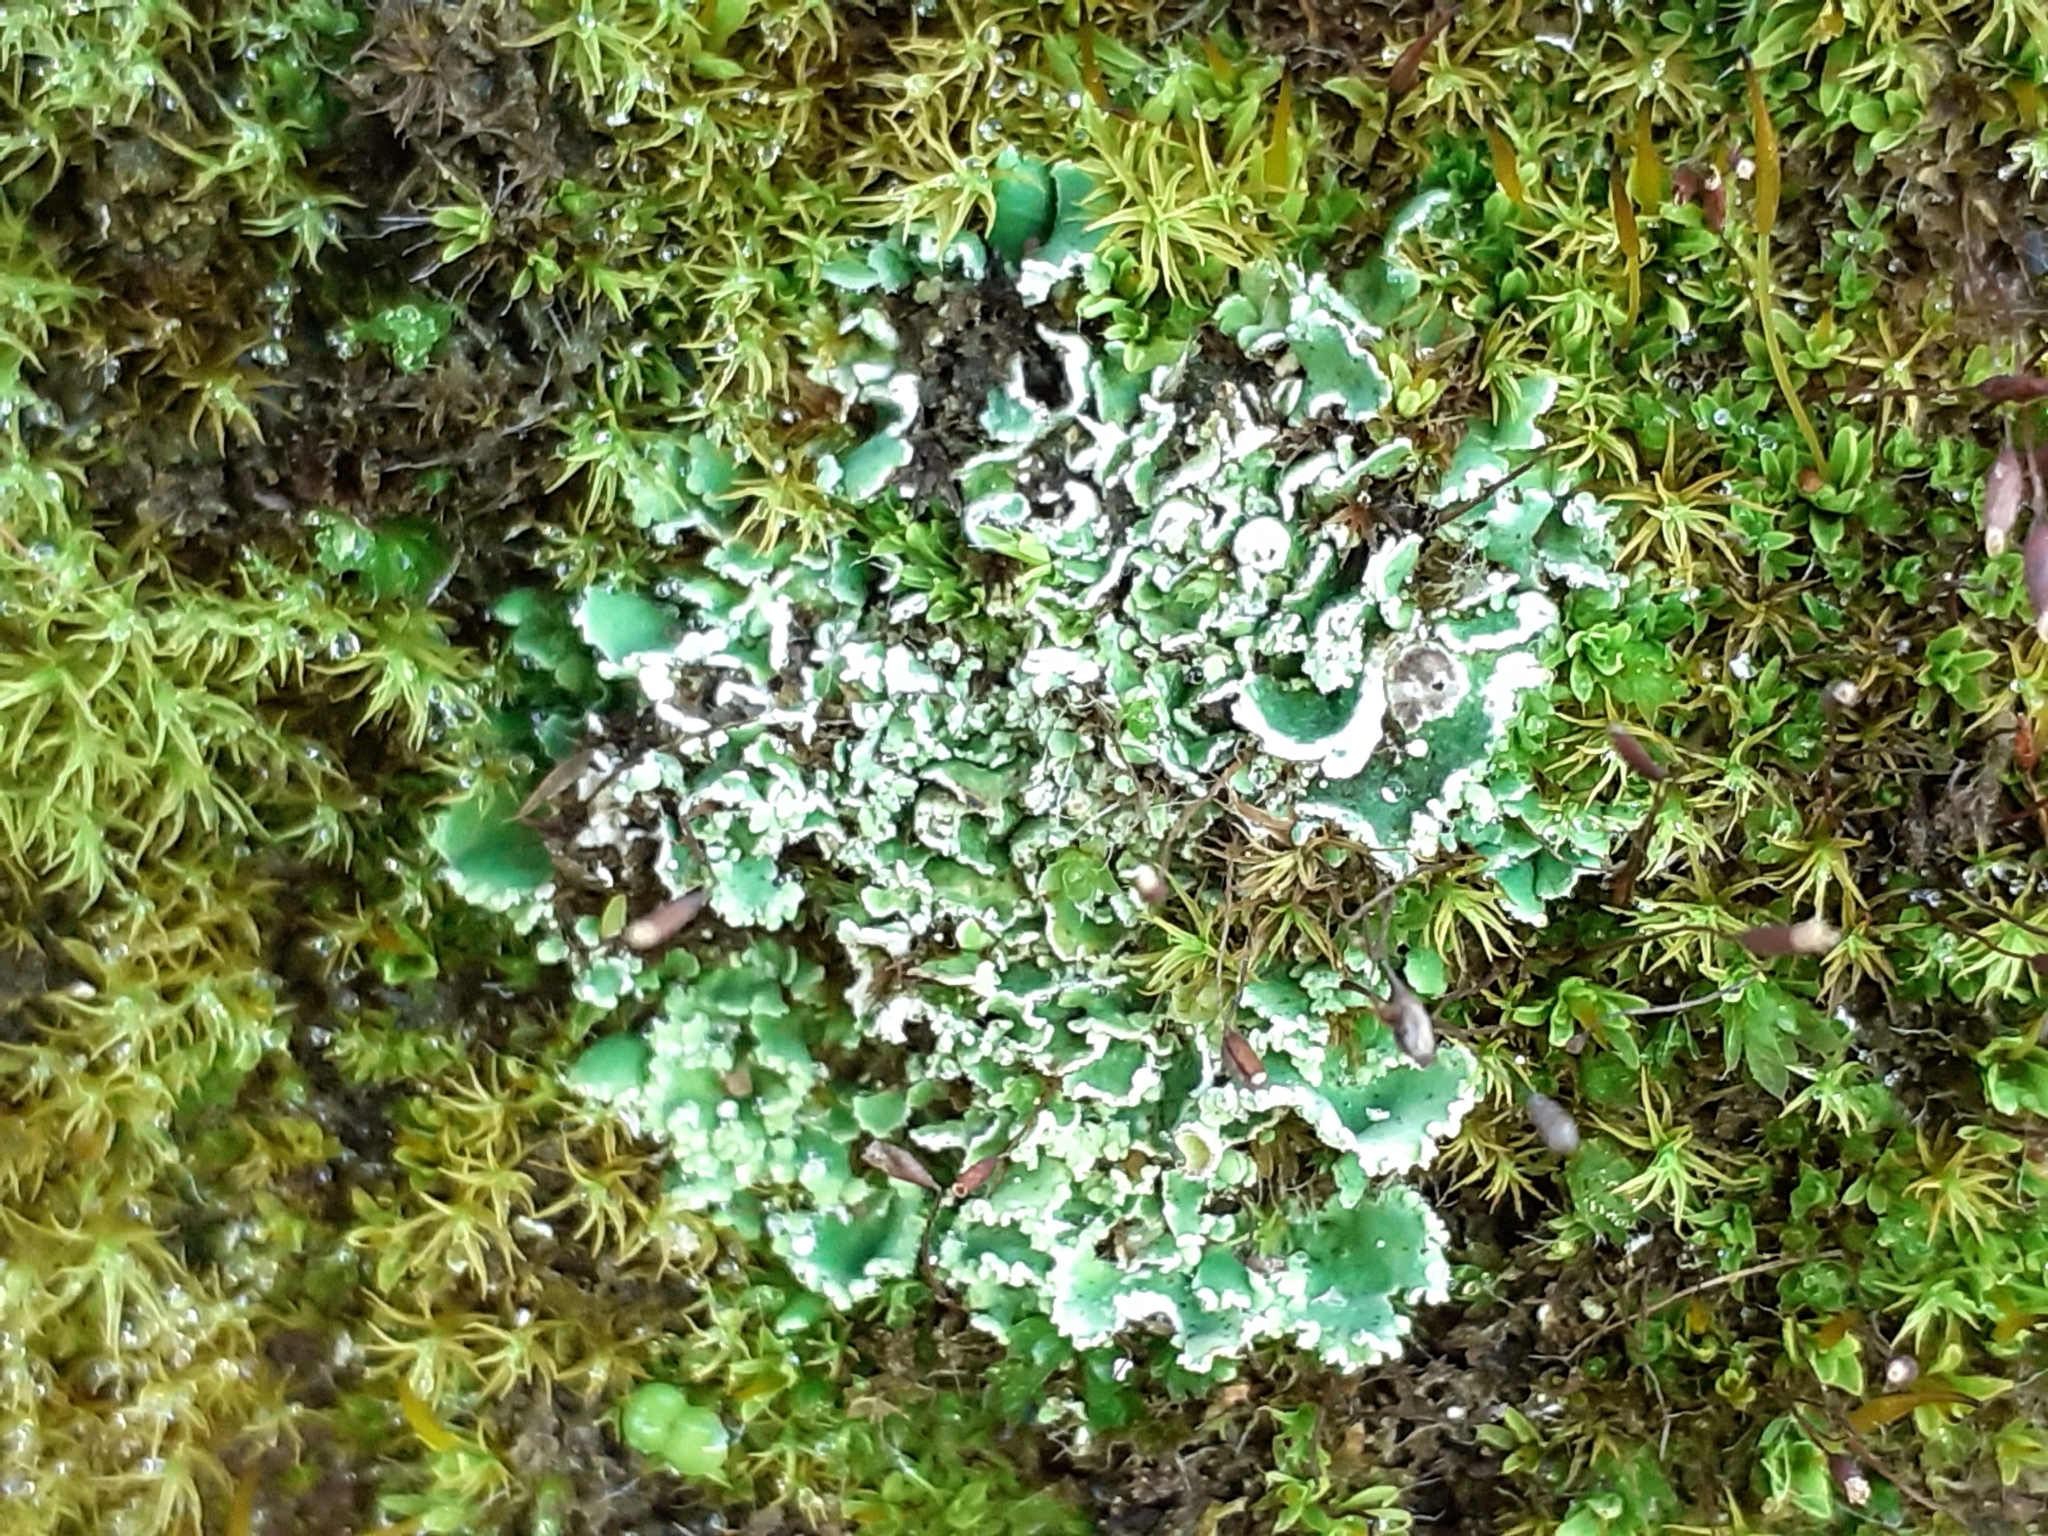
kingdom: Fungi
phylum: Ascomycota
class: Lecanoromycetes
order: Lecanorales
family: Cladoniaceae
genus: Cladonia
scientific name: Cladonia
